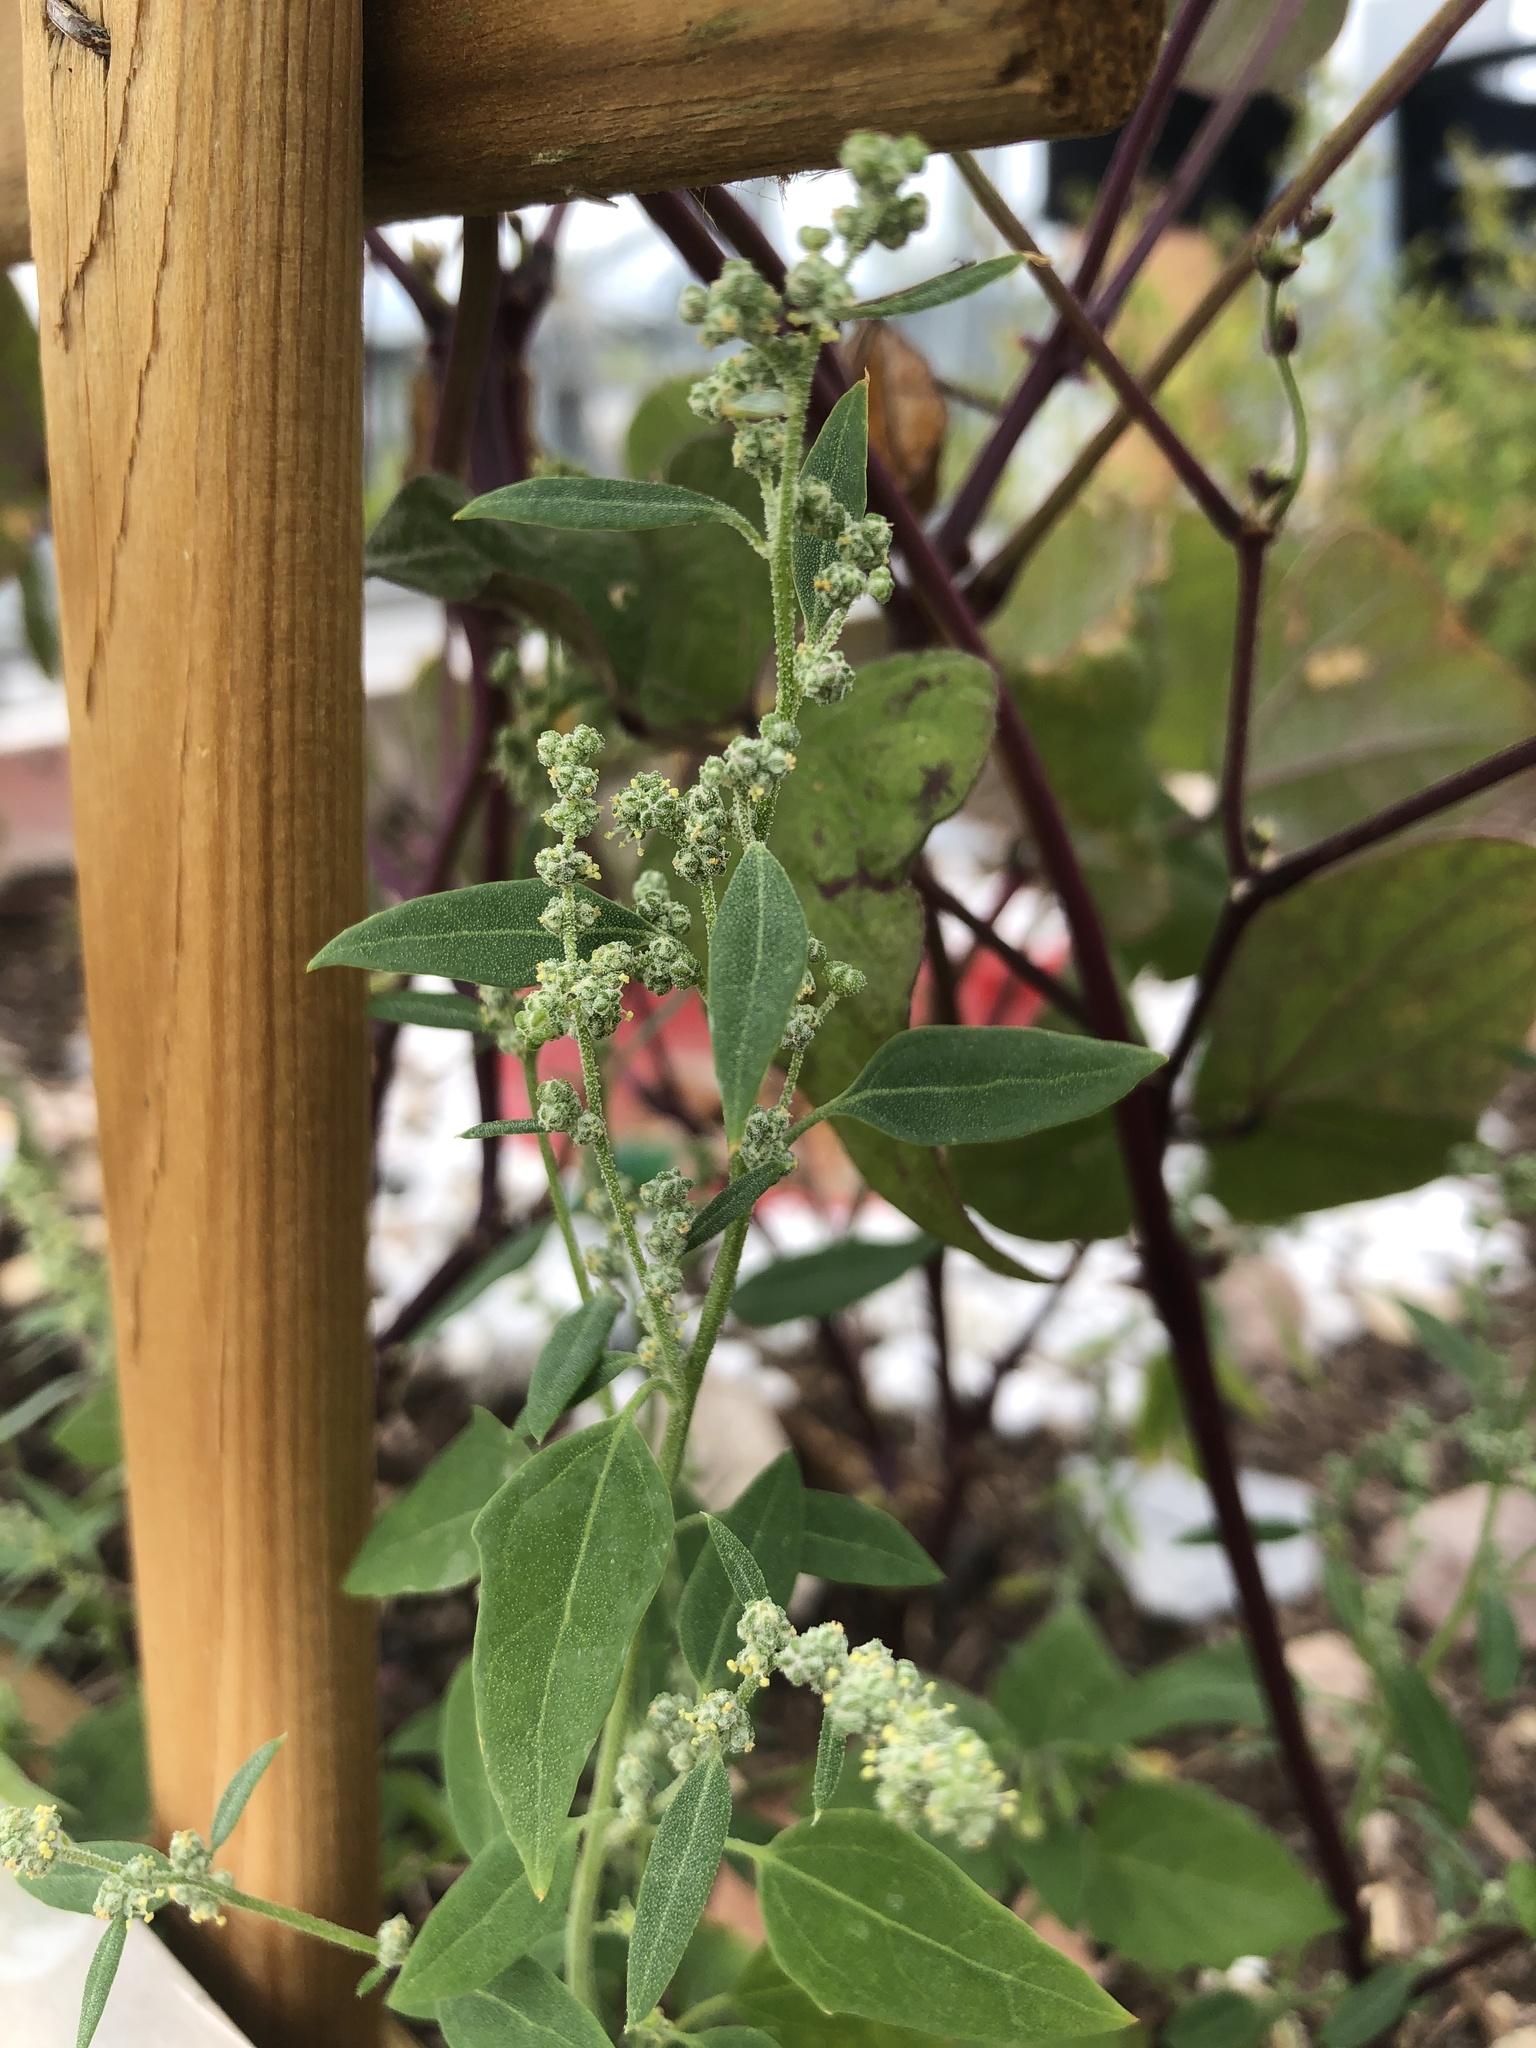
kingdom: Plantae
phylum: Tracheophyta
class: Magnoliopsida
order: Caryophyllales
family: Amaranthaceae
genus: Chenopodium
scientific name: Chenopodium album
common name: Fat-hen
